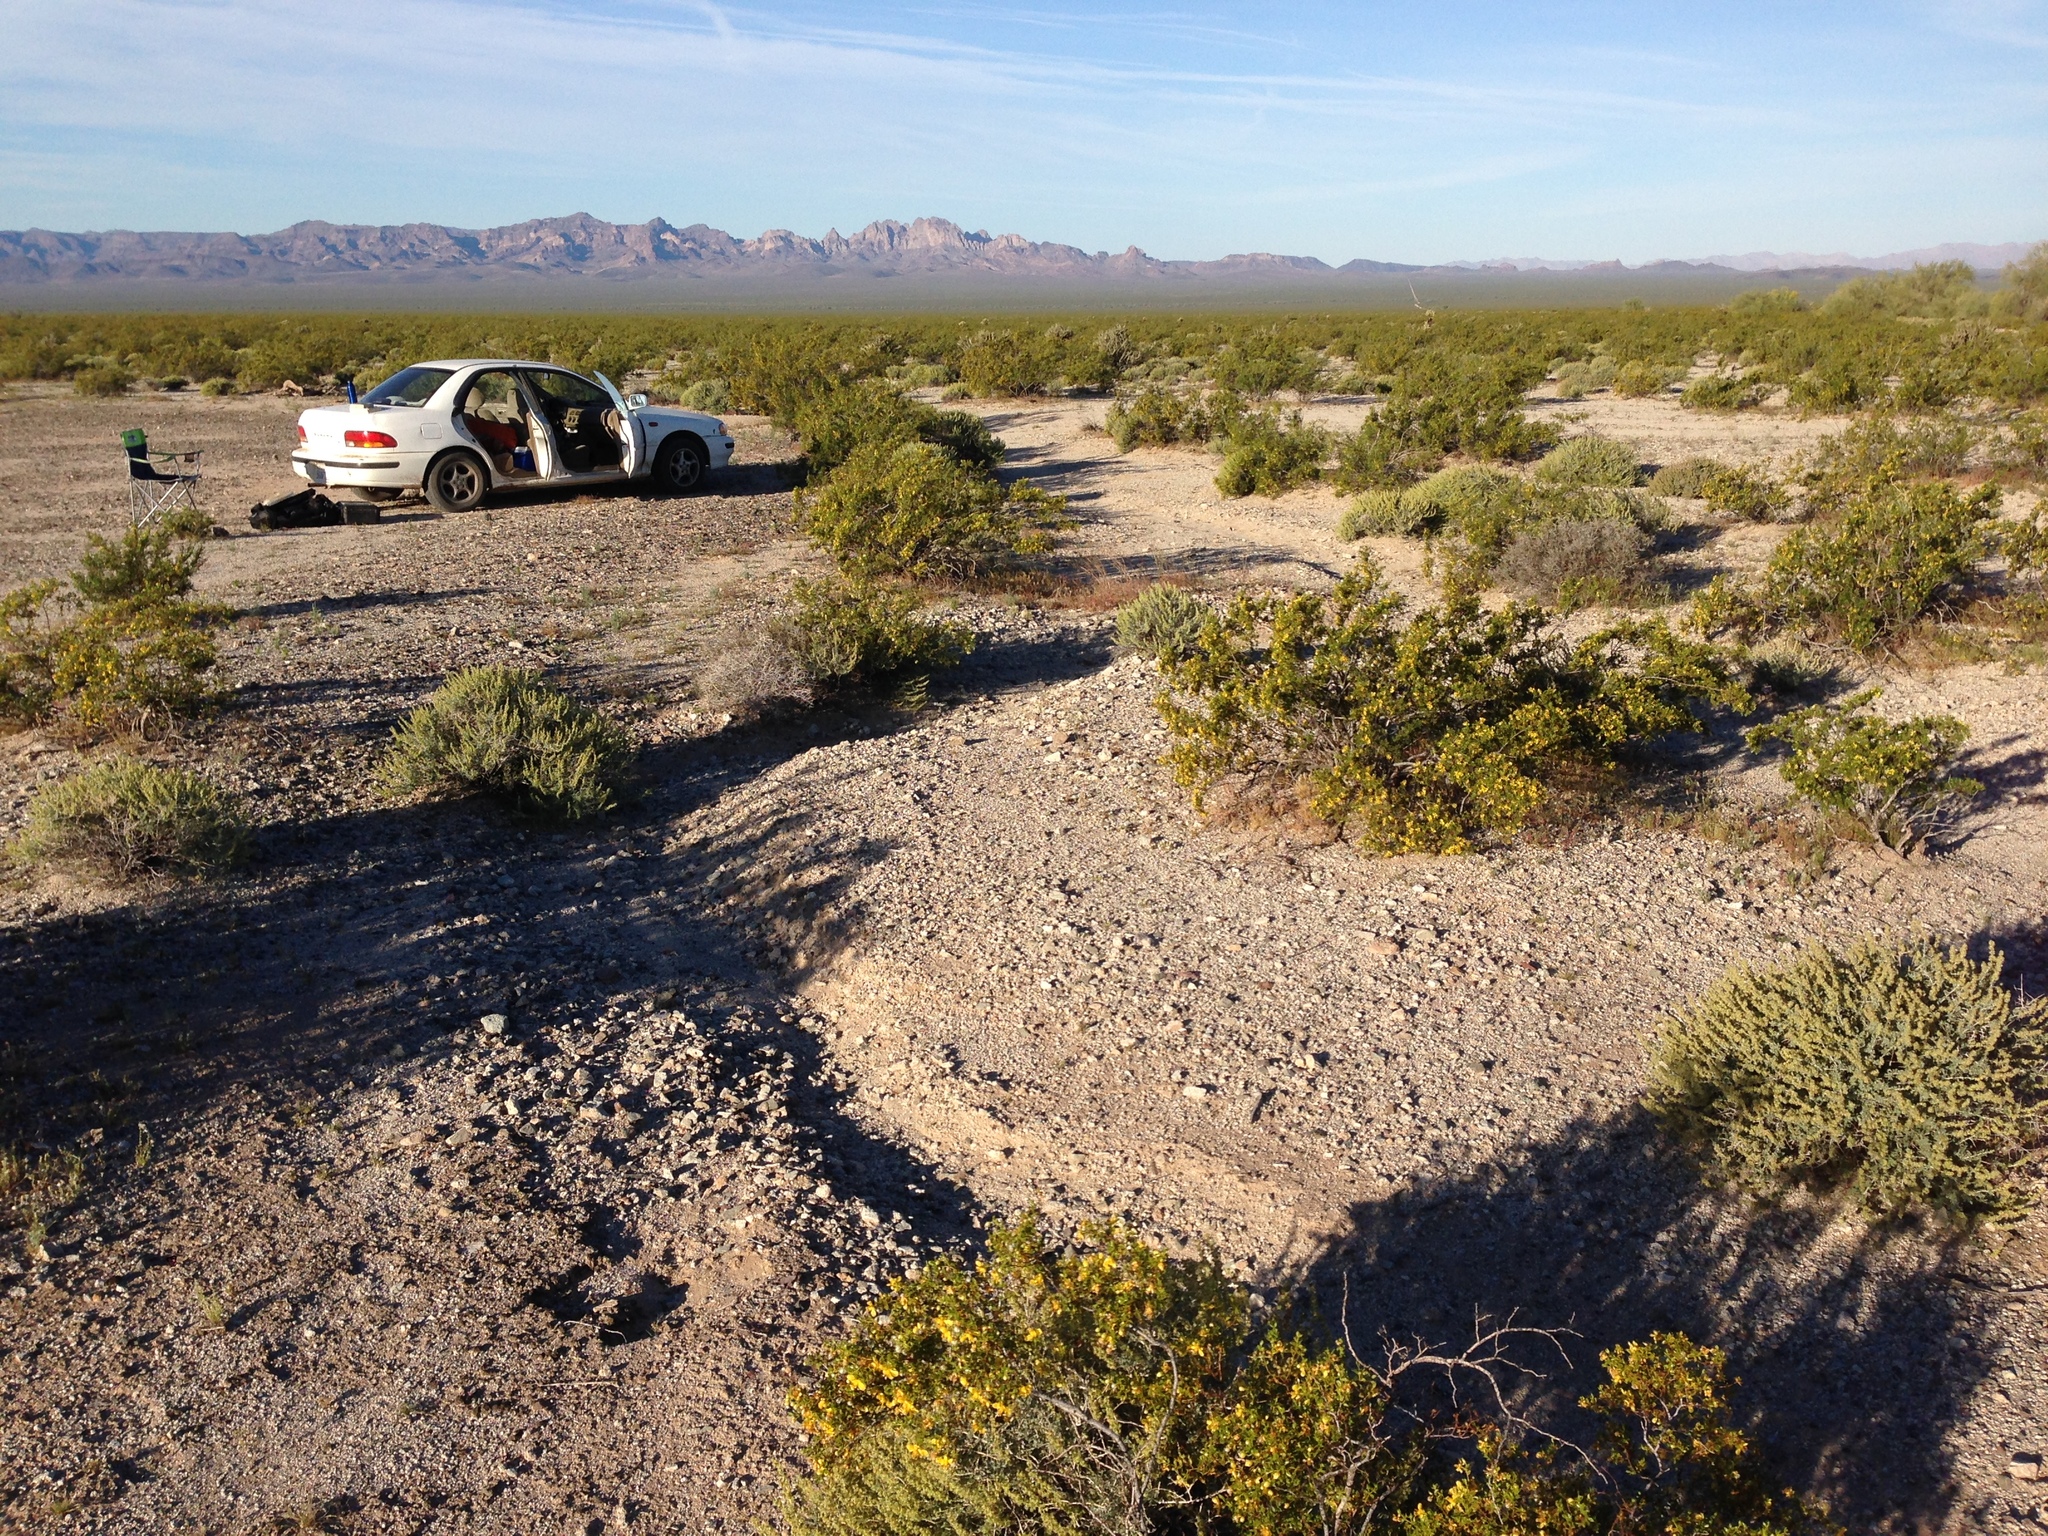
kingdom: Plantae
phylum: Tracheophyta
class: Magnoliopsida
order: Asterales
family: Asteraceae
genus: Ambrosia
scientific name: Ambrosia dumosa
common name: Bur-sage
